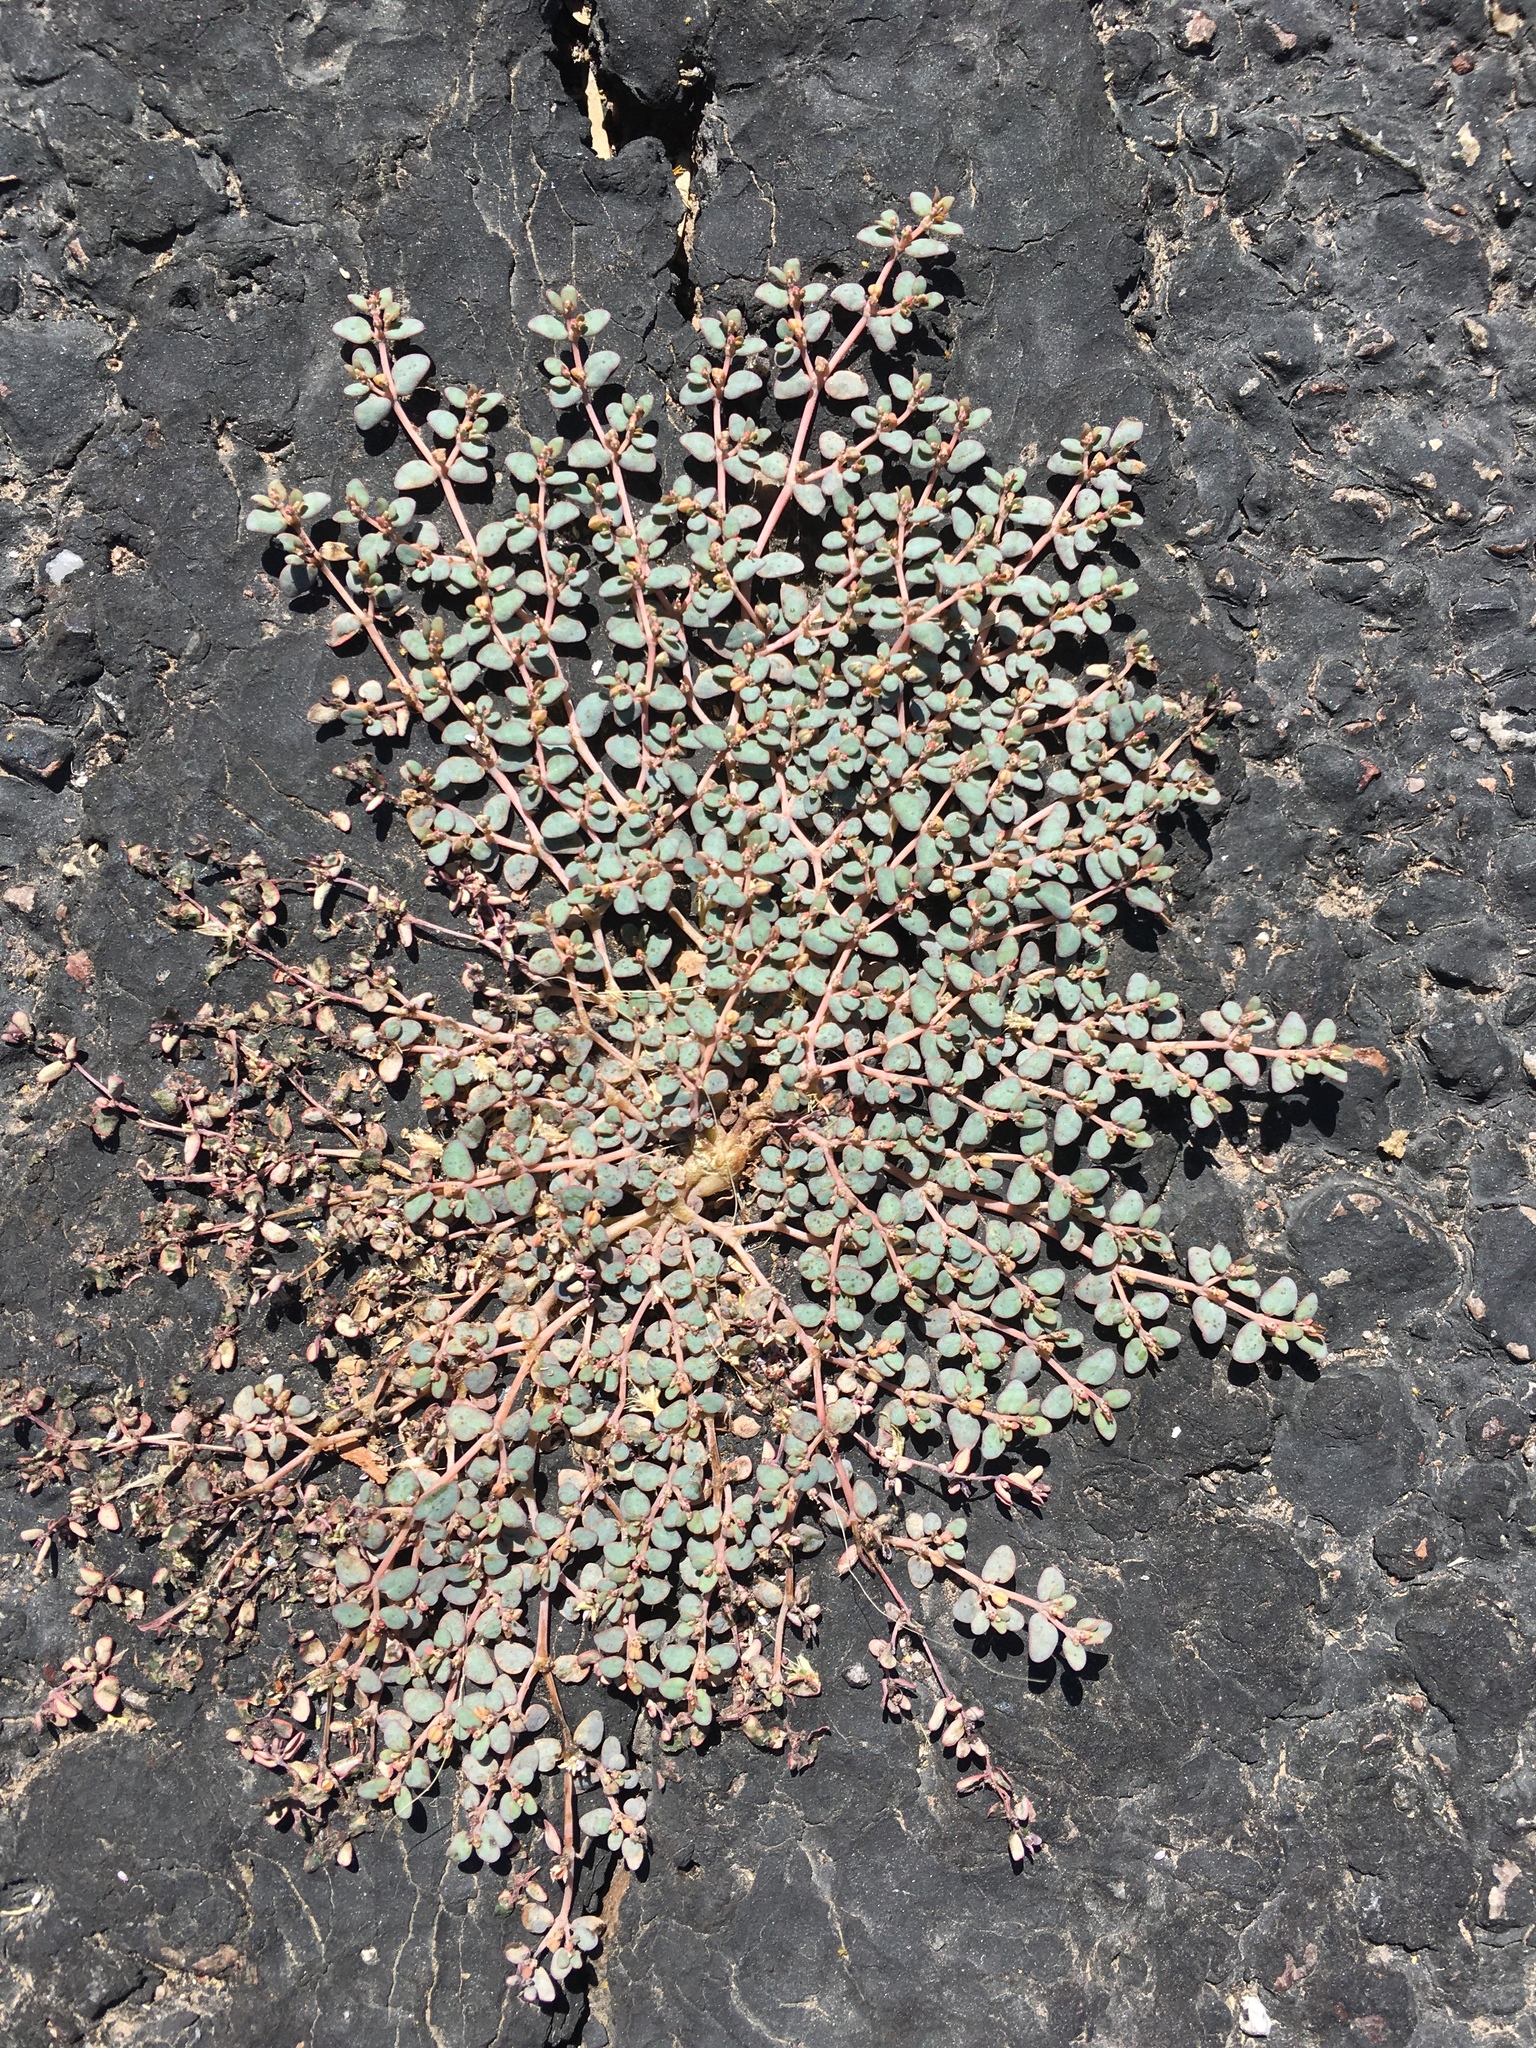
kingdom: Plantae
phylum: Tracheophyta
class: Magnoliopsida
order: Malpighiales
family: Euphorbiaceae
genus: Euphorbia
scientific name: Euphorbia micromera
